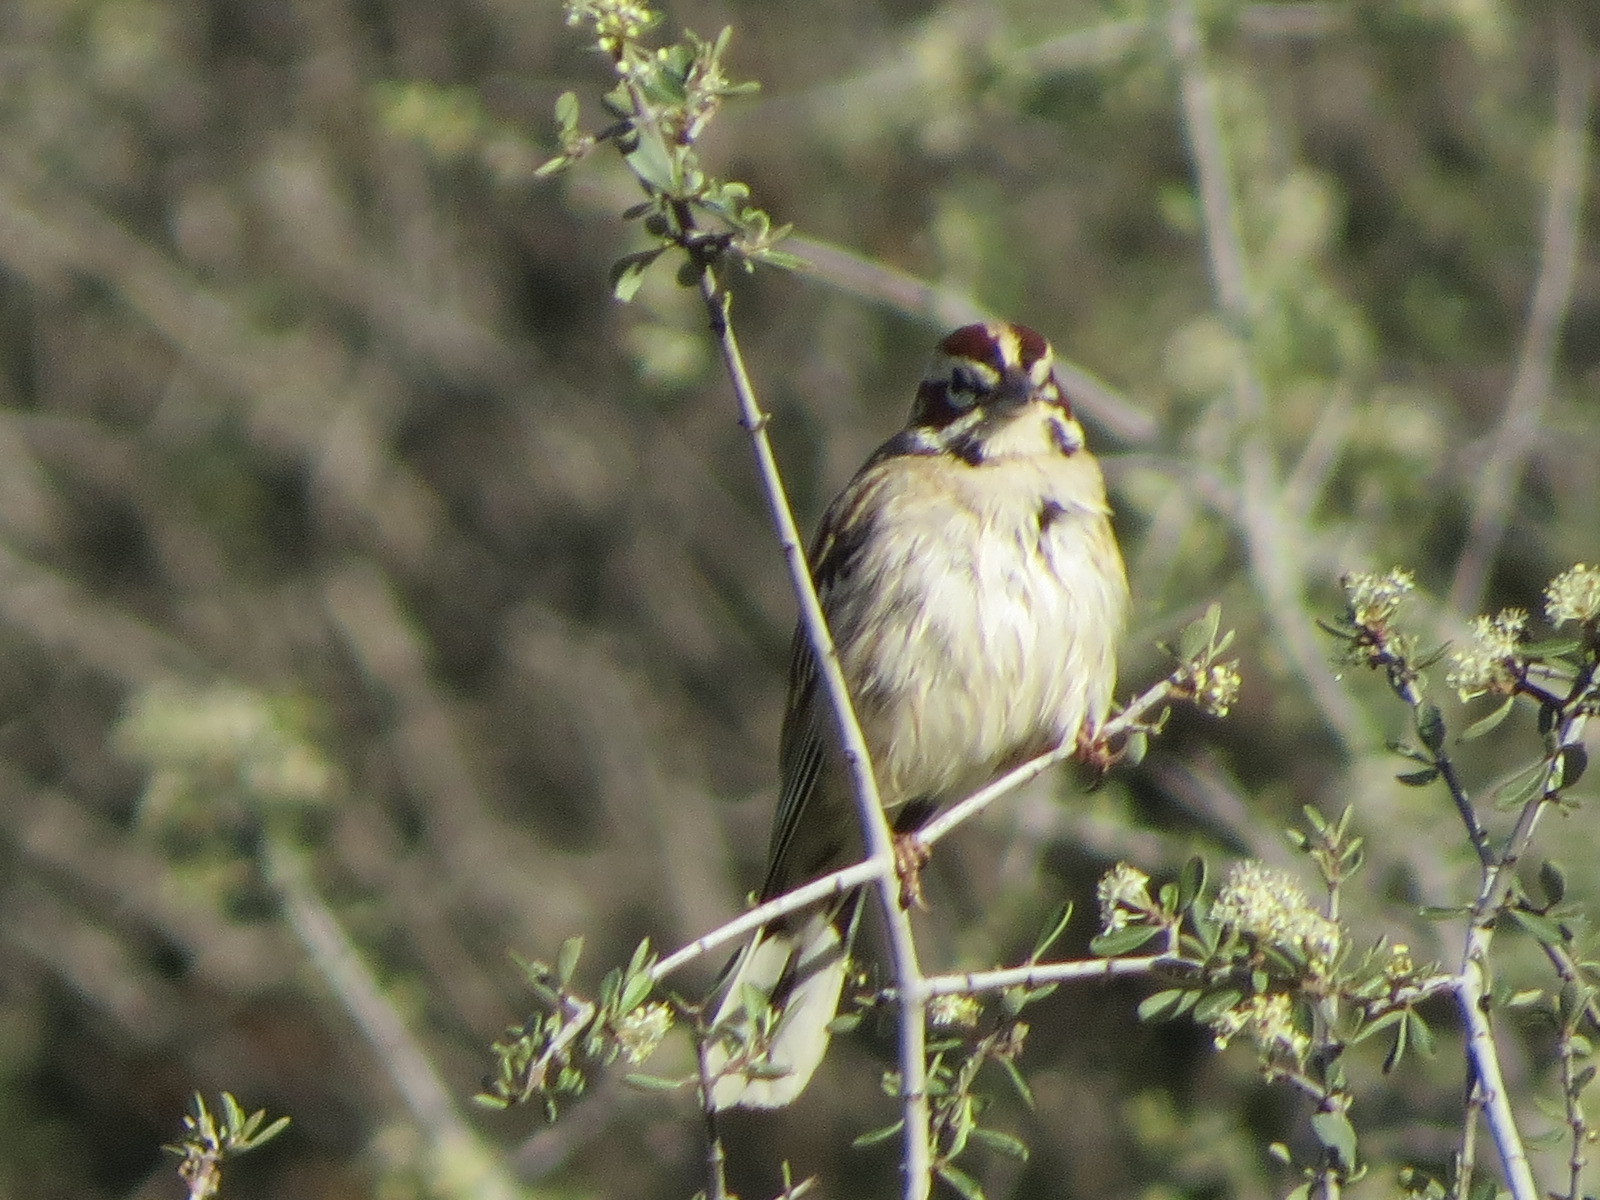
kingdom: Animalia
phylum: Chordata
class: Aves
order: Passeriformes
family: Passerellidae
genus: Chondestes
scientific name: Chondestes grammacus
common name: Lark sparrow
